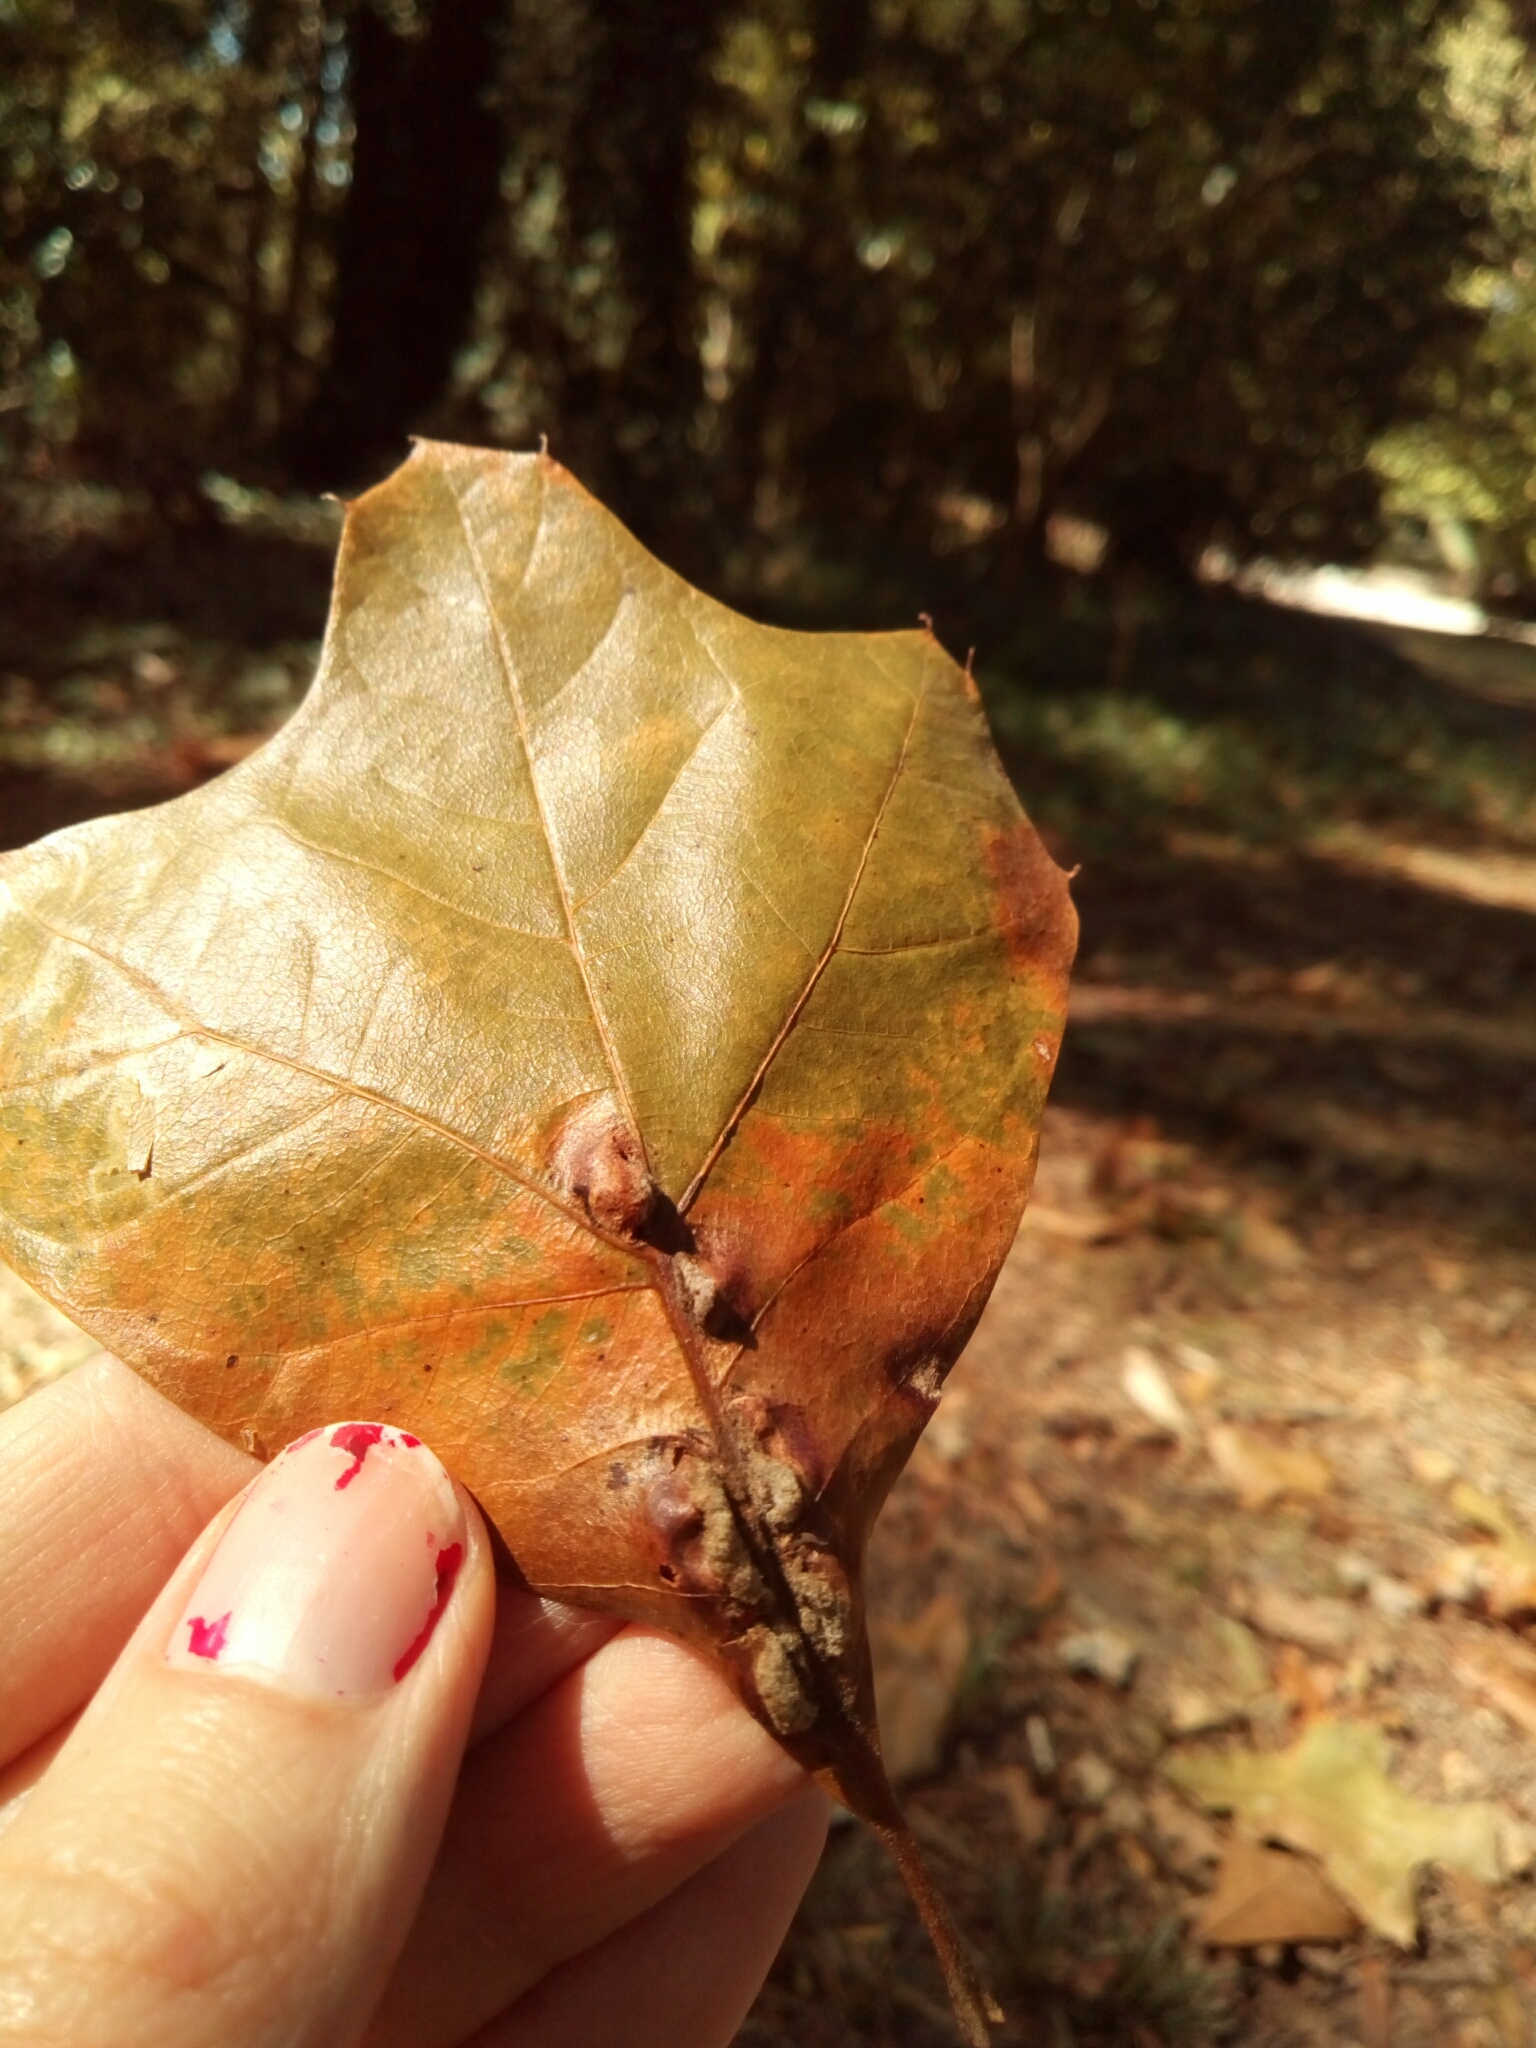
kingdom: Animalia
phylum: Arthropoda
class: Insecta
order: Diptera
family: Cecidomyiidae
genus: Macrodiplosis
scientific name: Macrodiplosis niveipila
